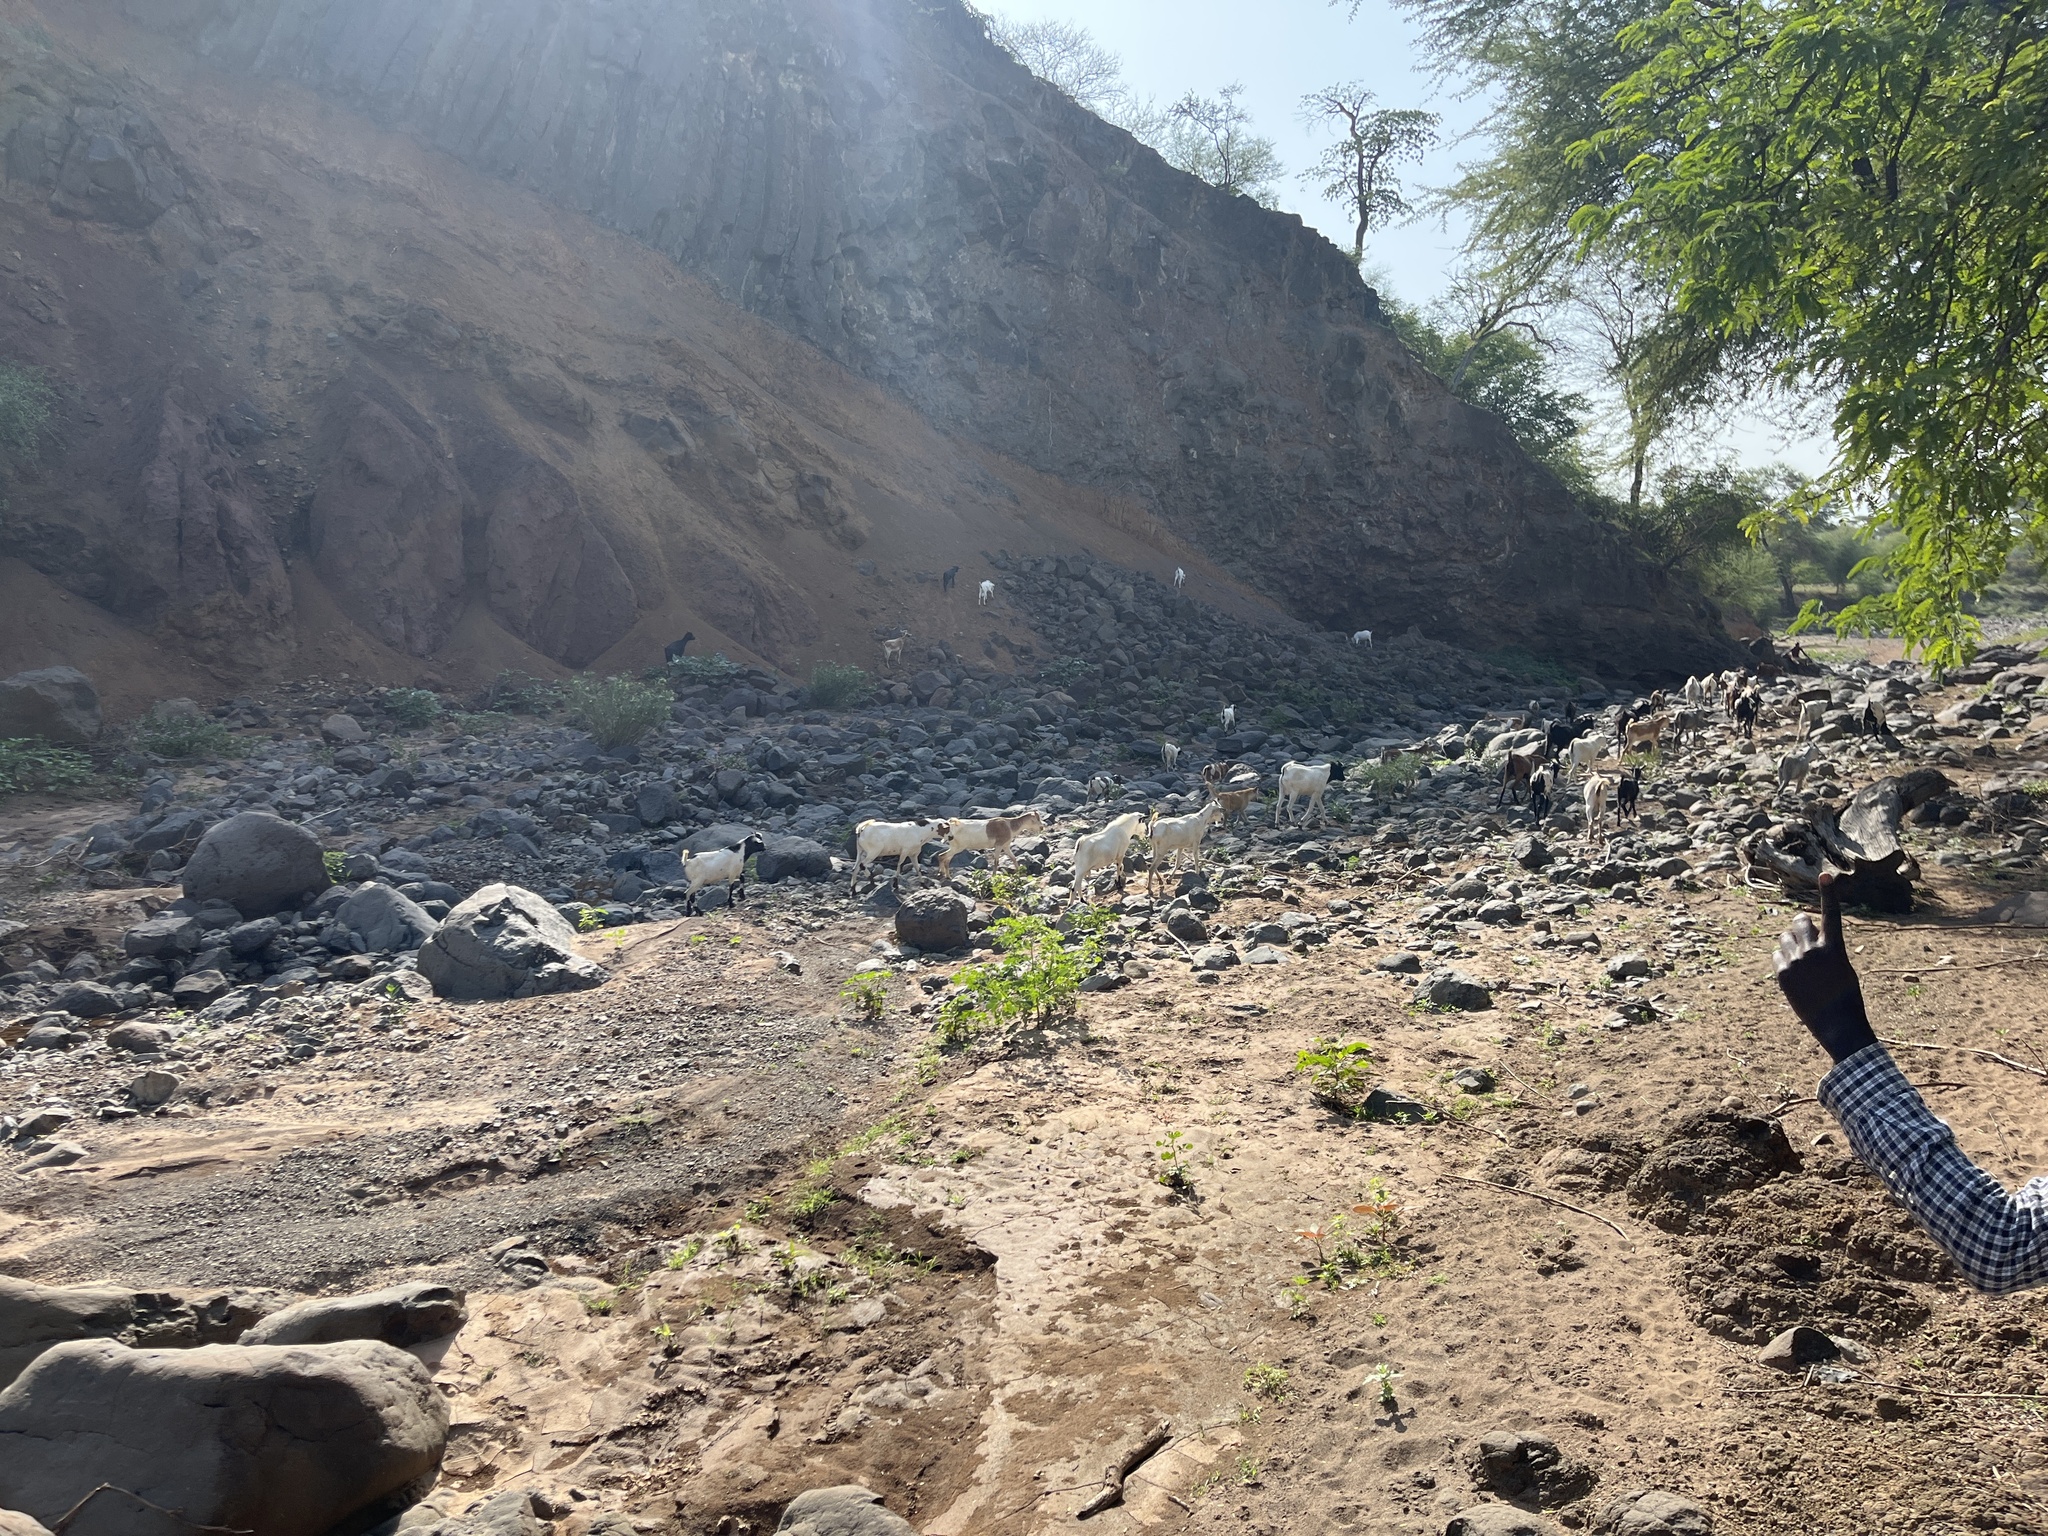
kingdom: Animalia
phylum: Chordata
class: Mammalia
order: Artiodactyla
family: Bovidae
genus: Capra
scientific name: Capra hircus
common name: Domestic goat
